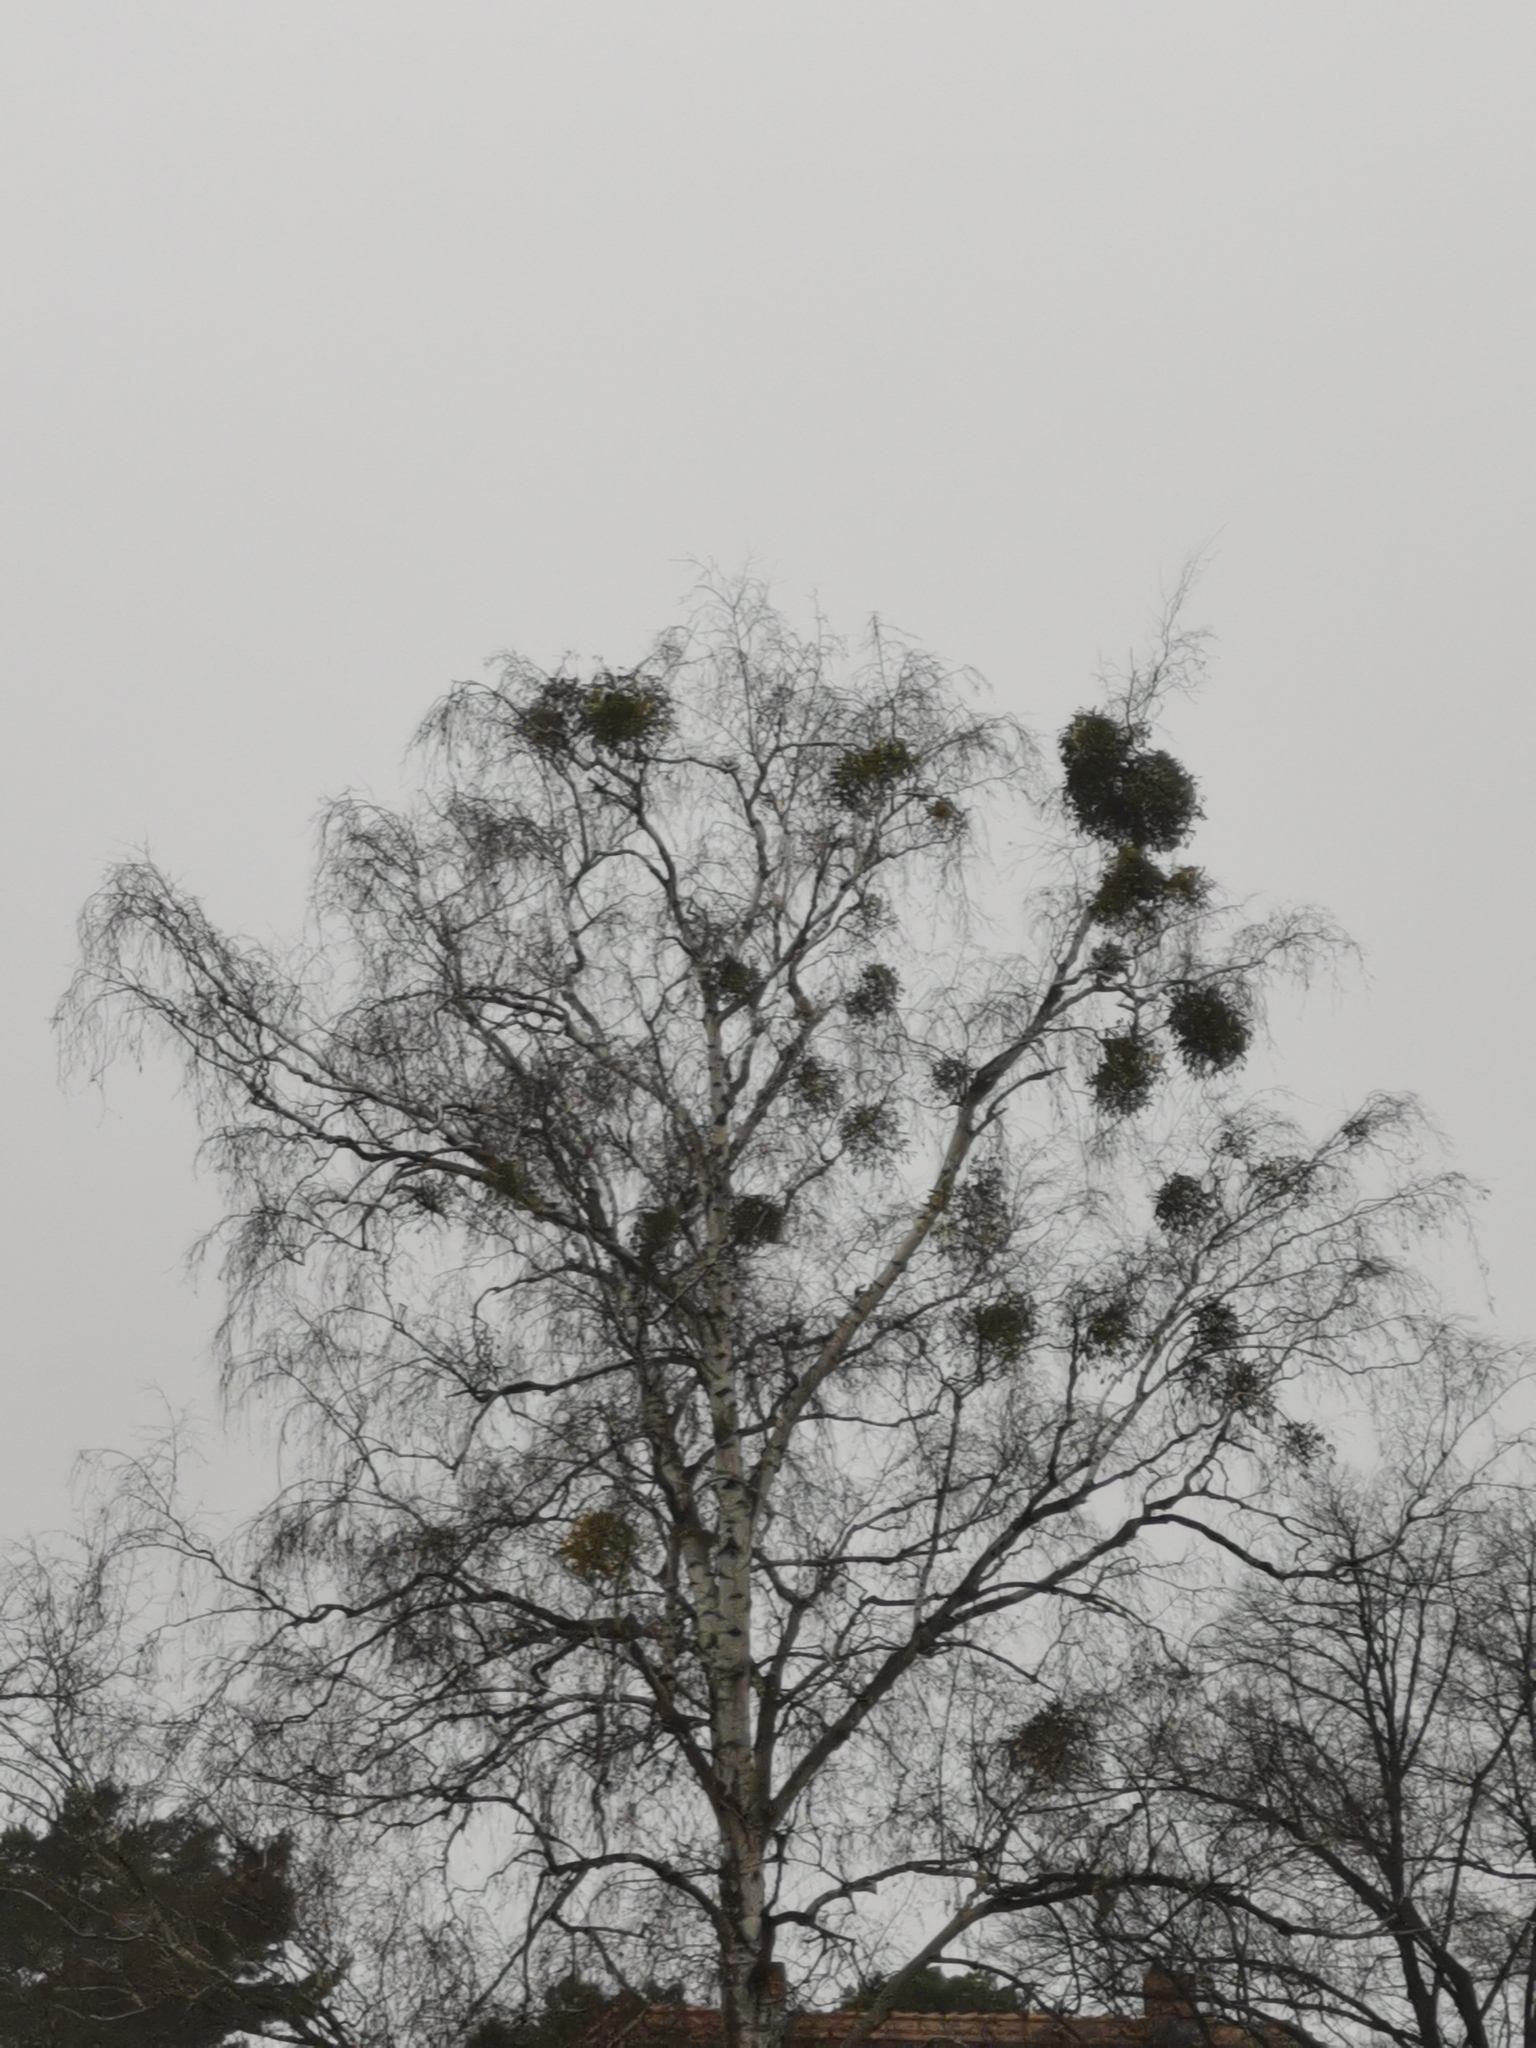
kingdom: Plantae
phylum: Tracheophyta
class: Magnoliopsida
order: Santalales
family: Viscaceae
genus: Viscum
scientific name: Viscum album
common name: Mistletoe
